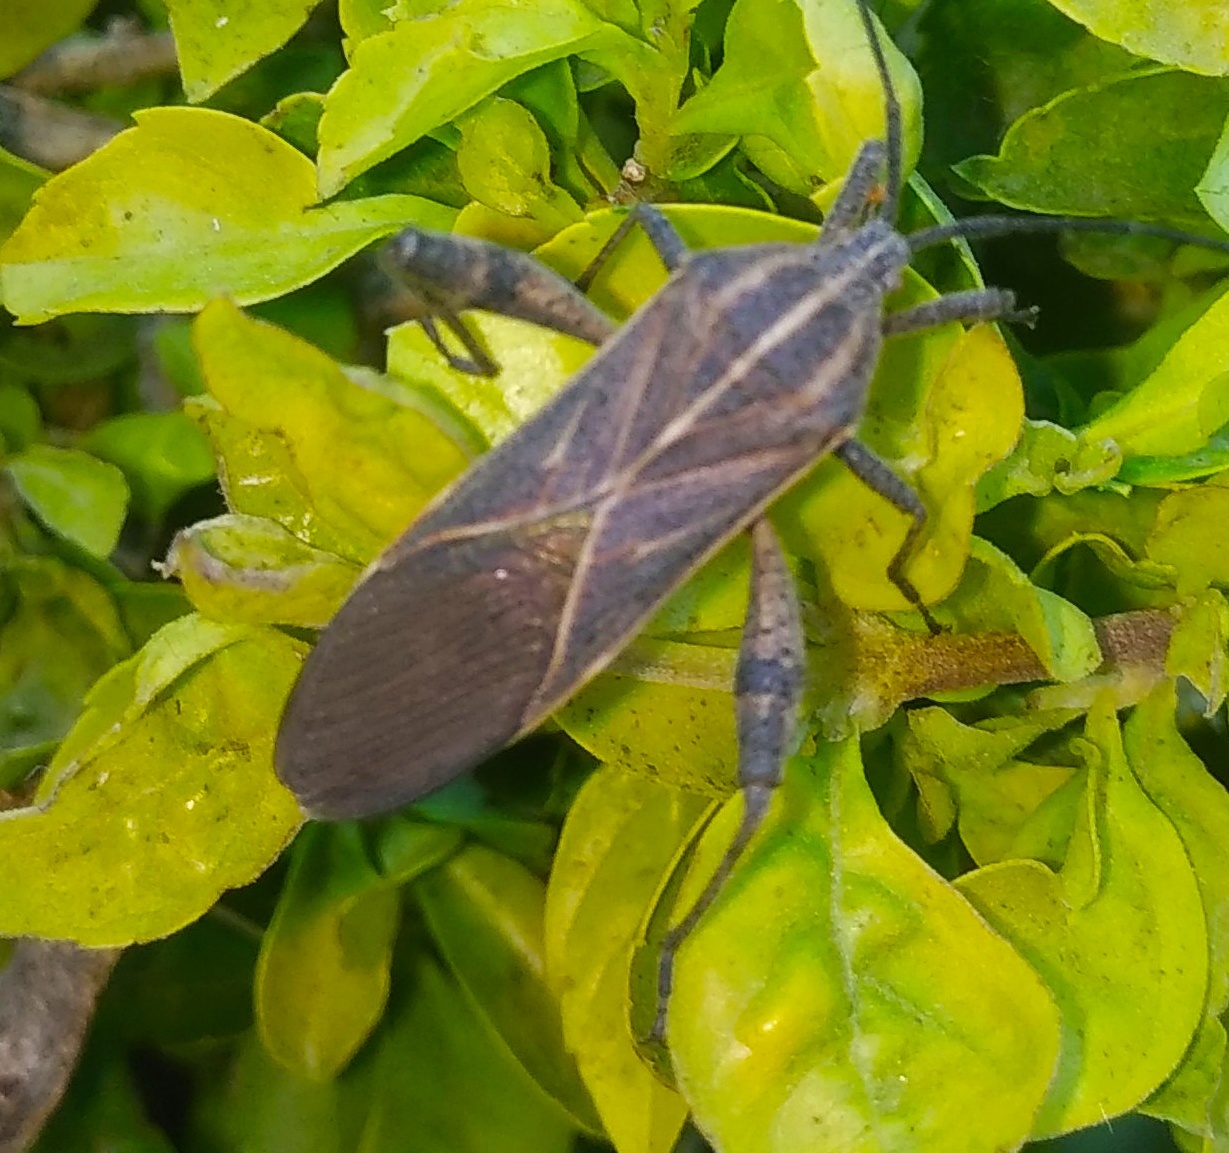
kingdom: Animalia
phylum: Arthropoda
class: Insecta
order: Hemiptera
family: Coreidae
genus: Physomerus
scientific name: Physomerus grossipes
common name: Squash bug
